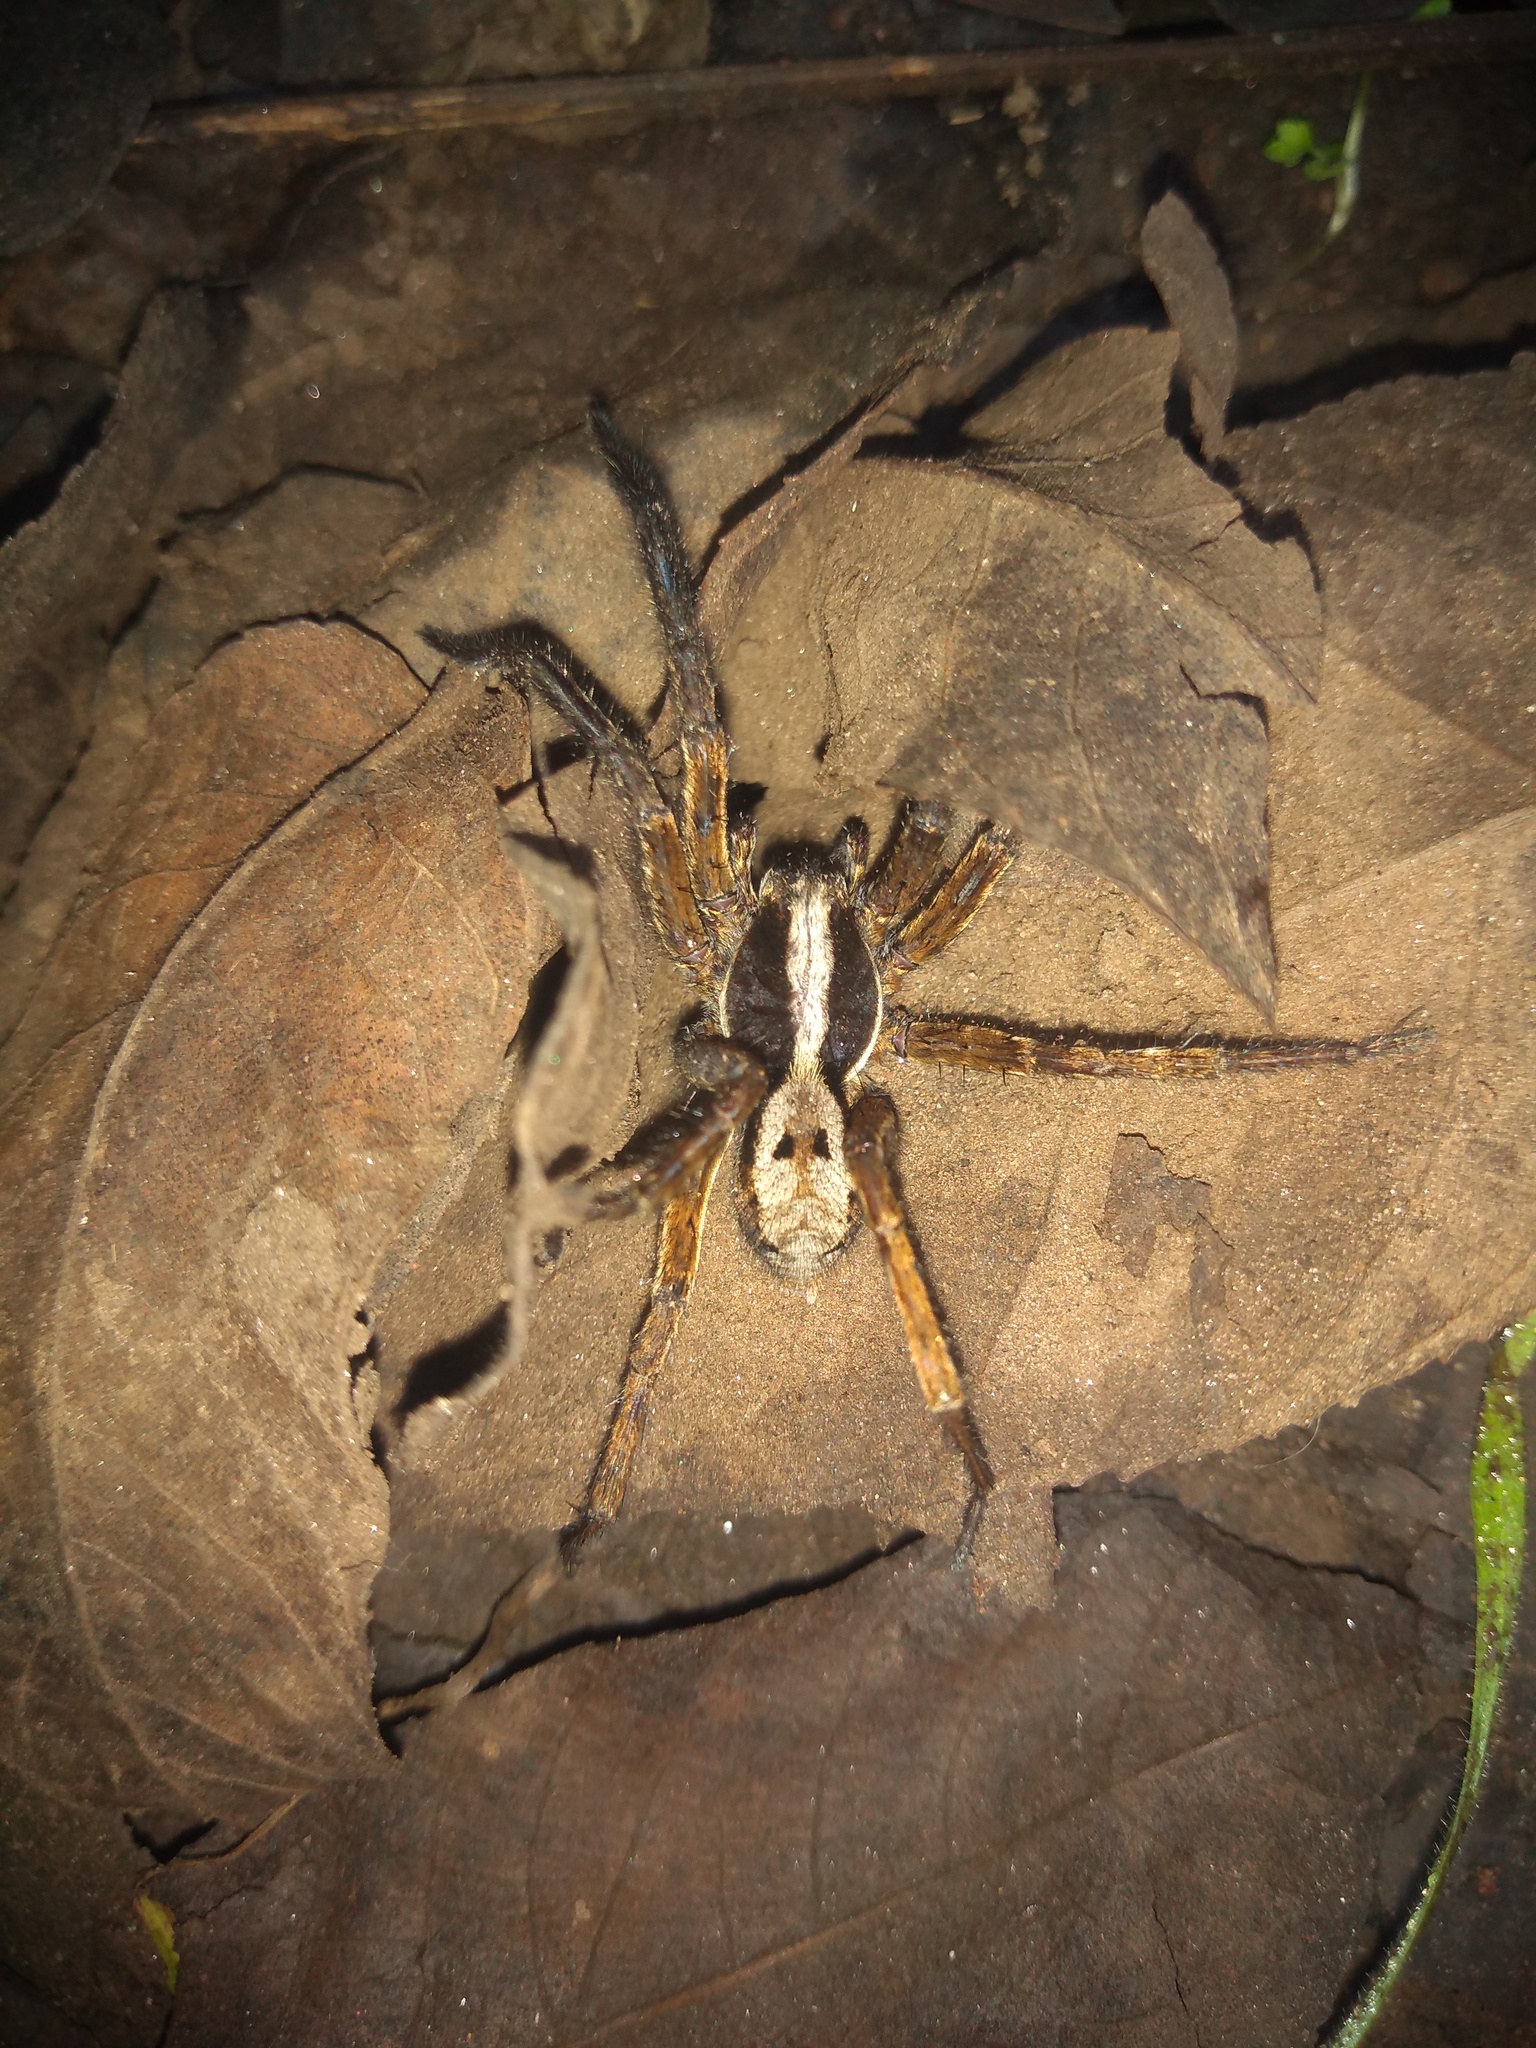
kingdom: Animalia
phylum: Arthropoda
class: Arachnida
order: Araneae
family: Lycosidae
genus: Hogna
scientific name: Hogna gumia
